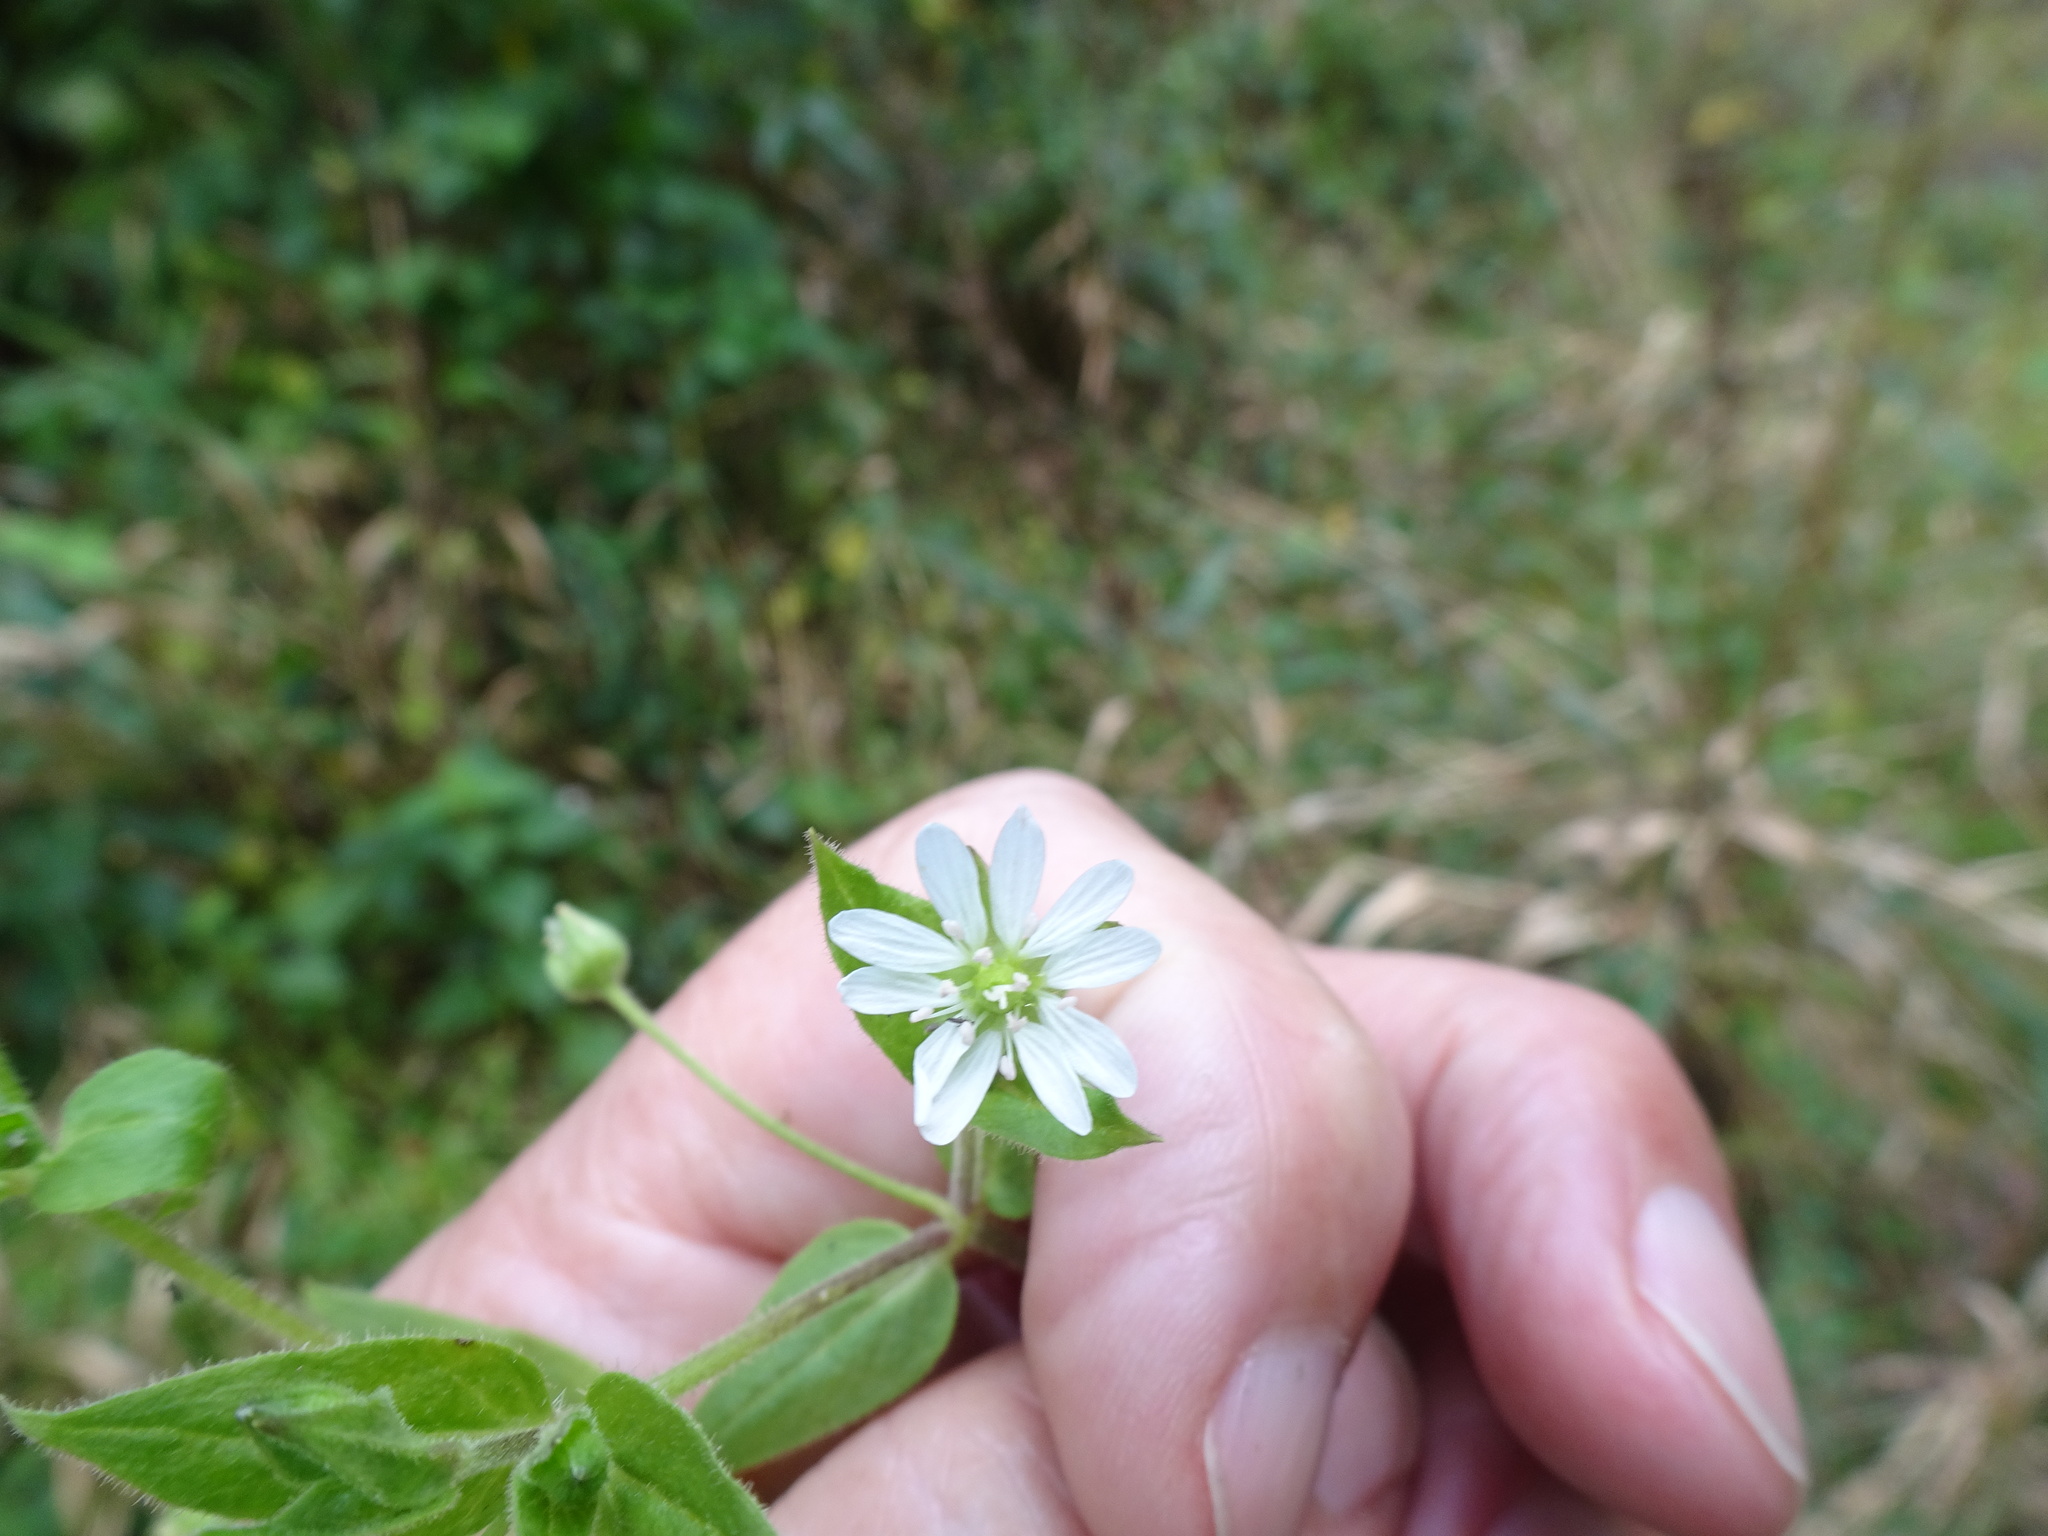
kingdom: Plantae
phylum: Tracheophyta
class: Magnoliopsida
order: Caryophyllales
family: Caryophyllaceae
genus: Stellaria
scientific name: Stellaria aquatica
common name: Water chickweed
